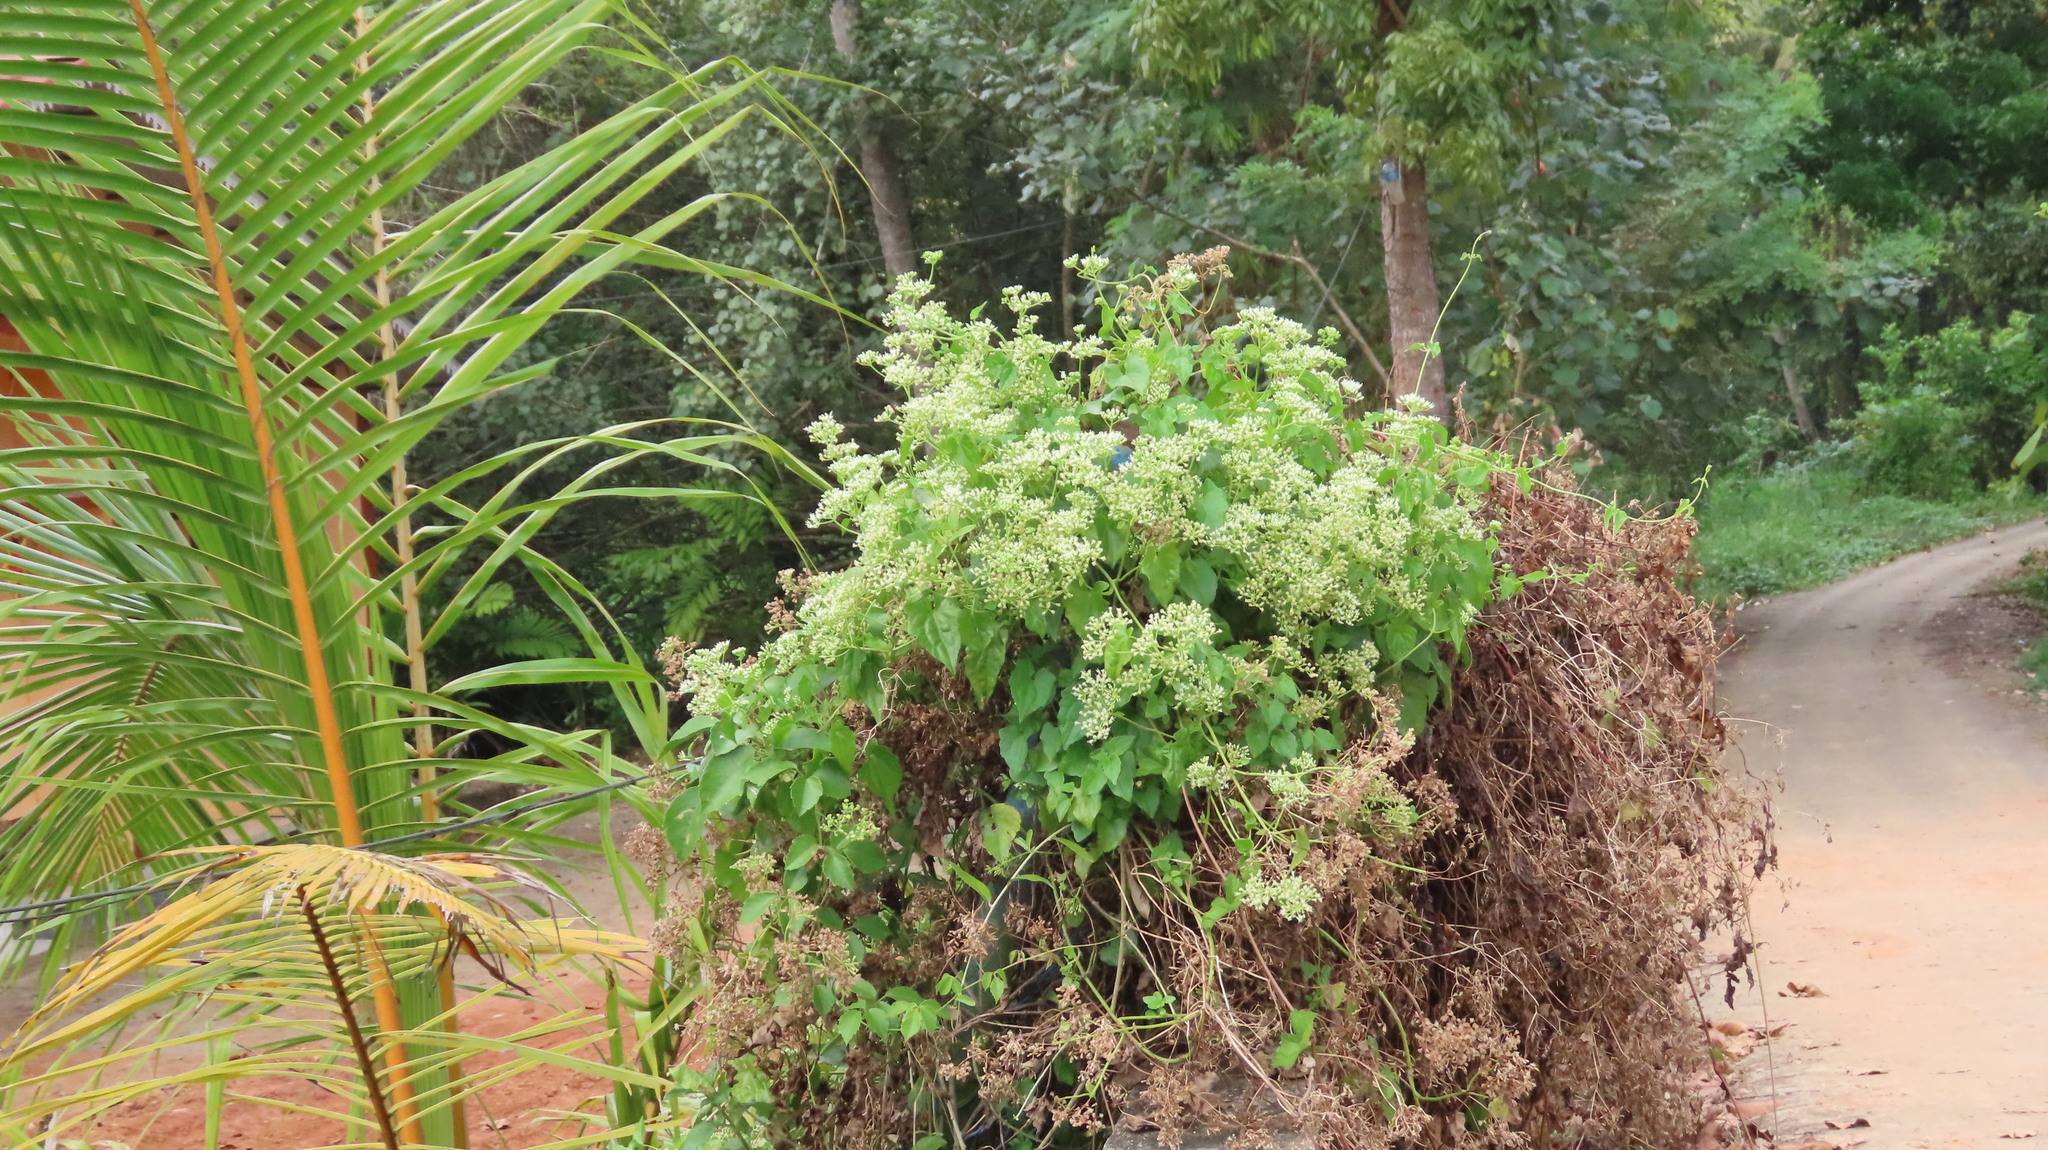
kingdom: Plantae
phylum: Tracheophyta
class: Magnoliopsida
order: Asterales
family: Asteraceae
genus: Mikania
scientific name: Mikania micrantha
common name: Mile-a-minute
